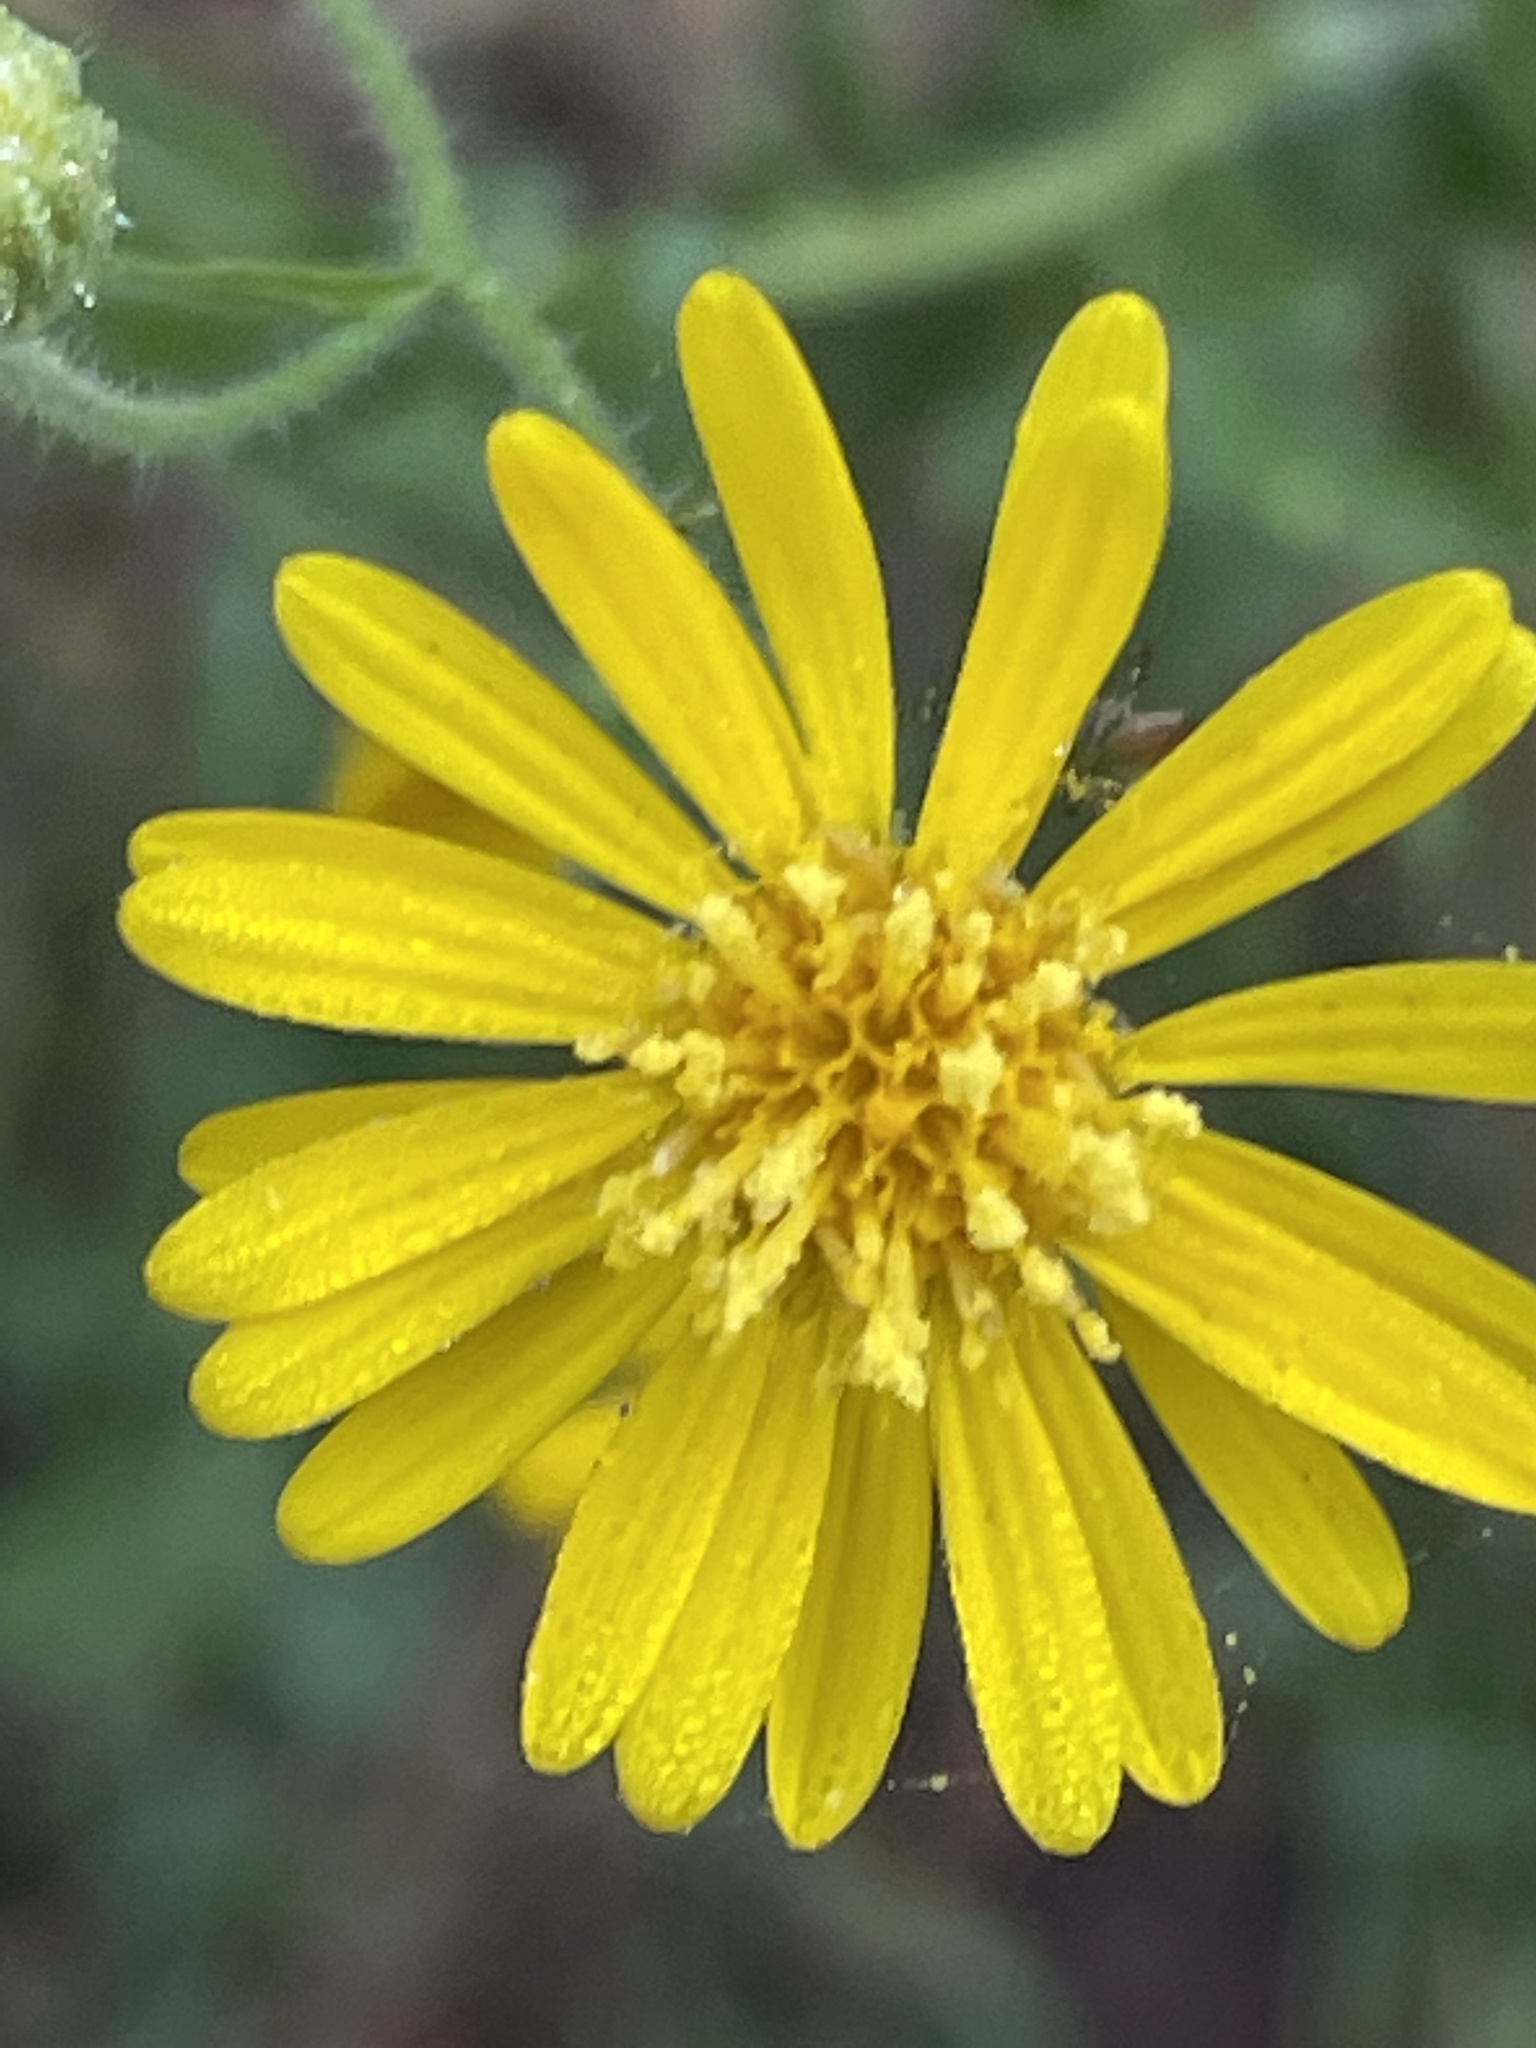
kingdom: Plantae
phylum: Tracheophyta
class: Magnoliopsida
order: Asterales
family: Asteraceae
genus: Heterotheca
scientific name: Heterotheca subaxillaris
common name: Camphorweed
